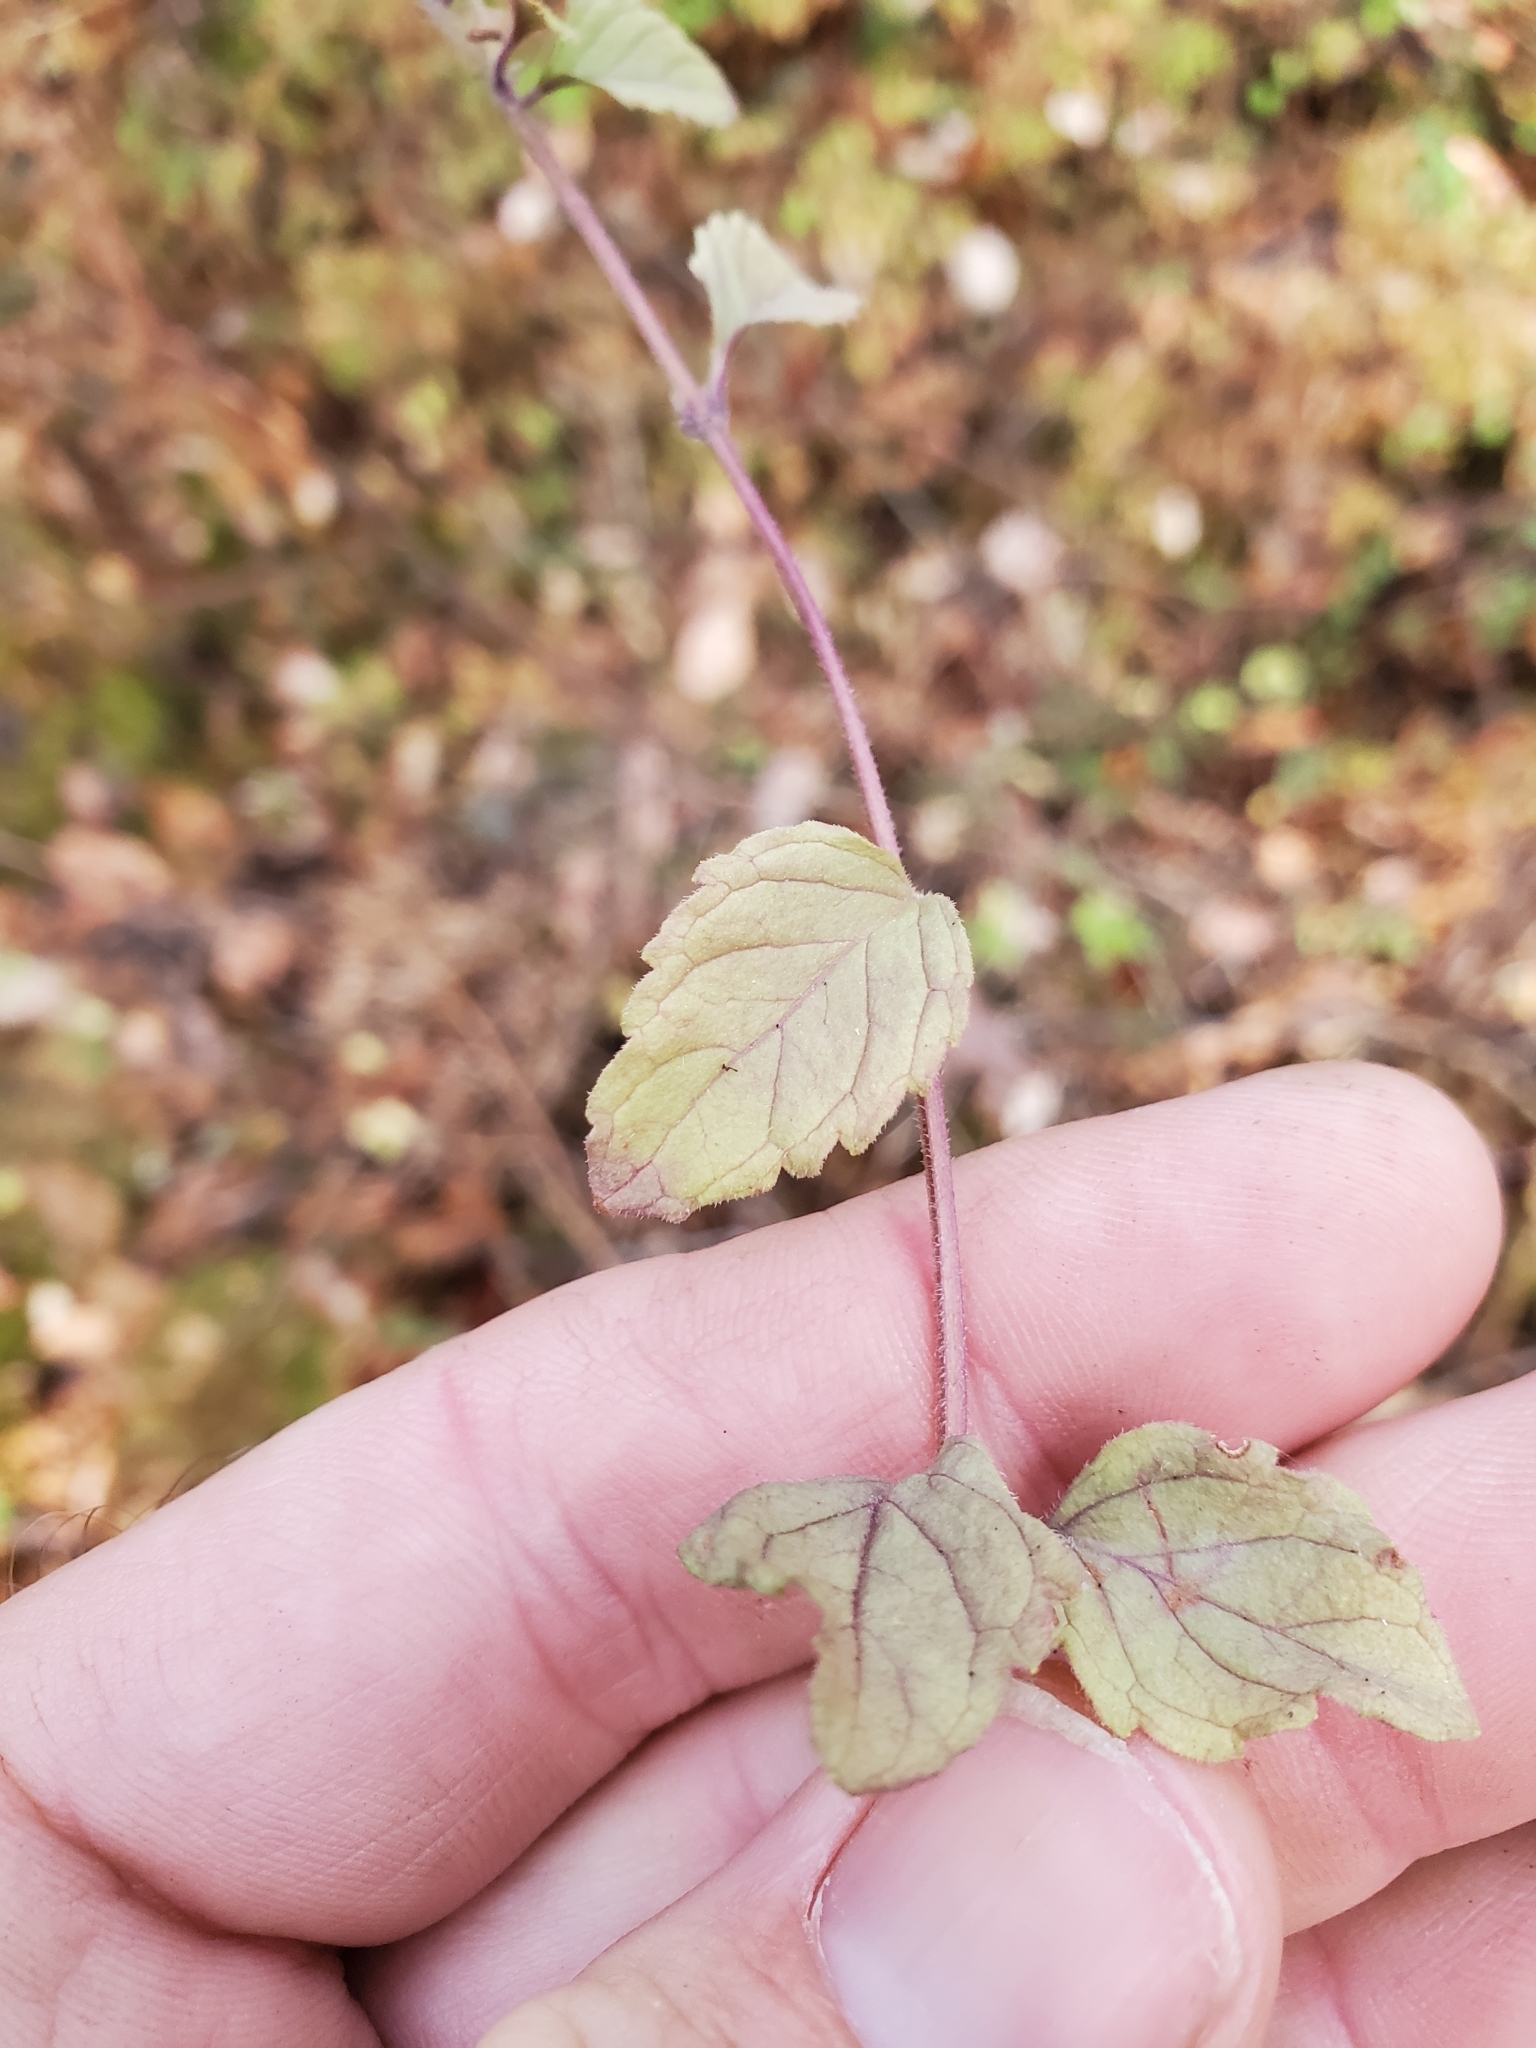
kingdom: Plantae
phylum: Tracheophyta
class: Magnoliopsida
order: Lamiales
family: Lamiaceae
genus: Micromeria
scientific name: Micromeria douglasii
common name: Yerba buena
